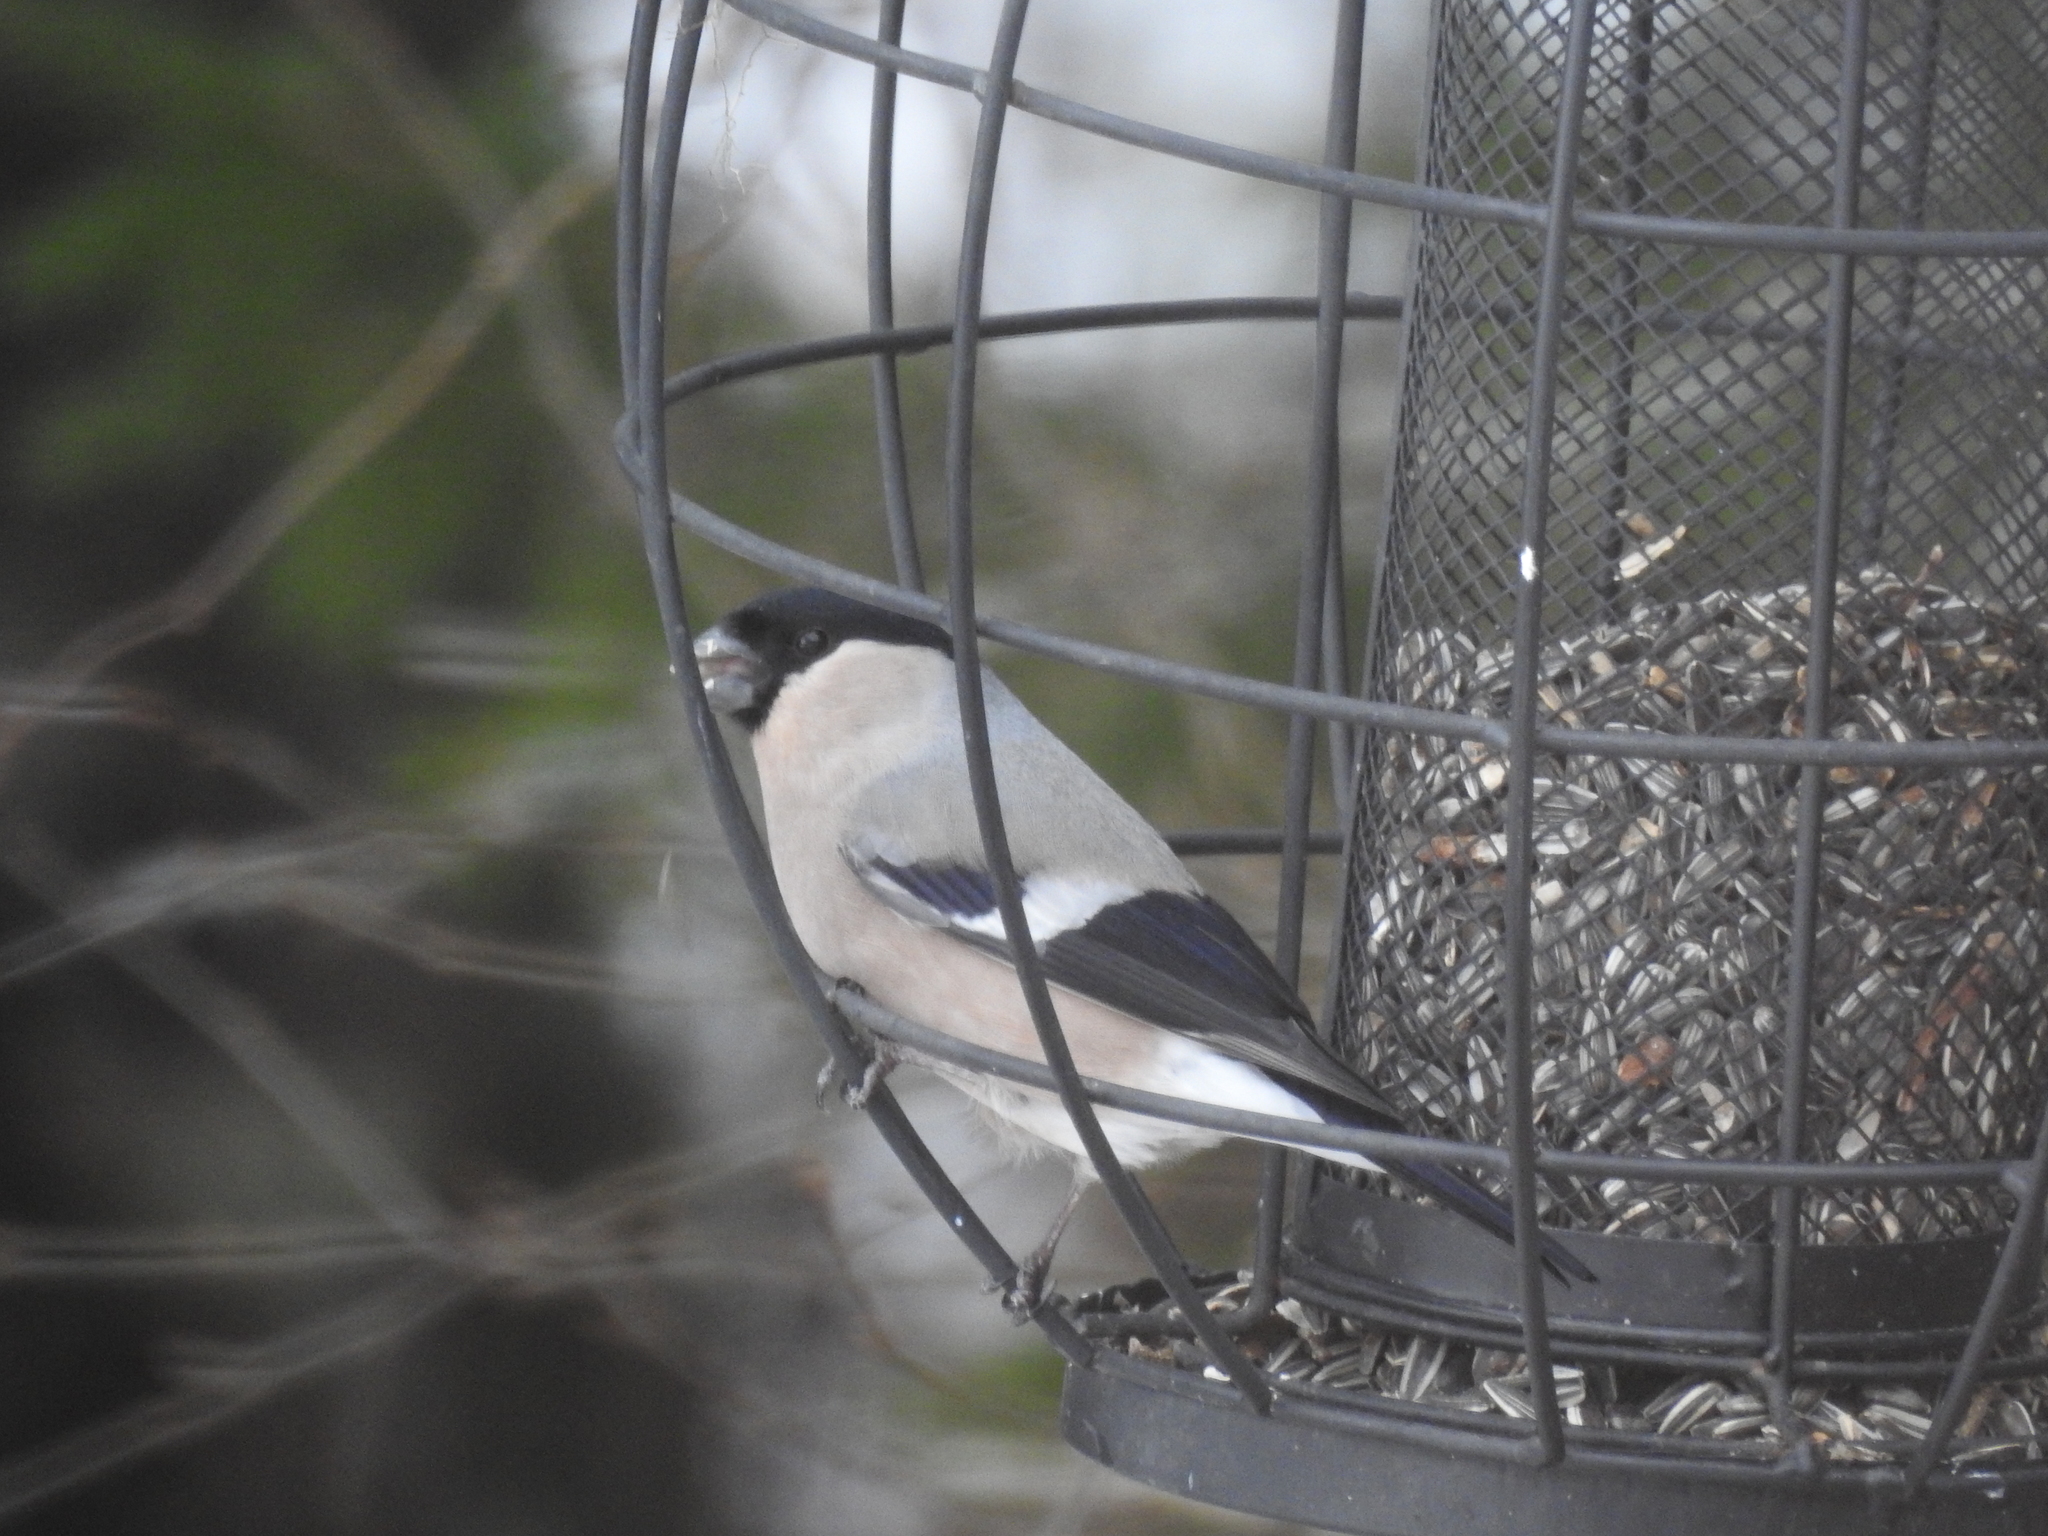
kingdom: Animalia
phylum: Chordata
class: Aves
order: Passeriformes
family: Fringillidae
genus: Pyrrhula
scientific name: Pyrrhula pyrrhula
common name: Eurasian bullfinch
